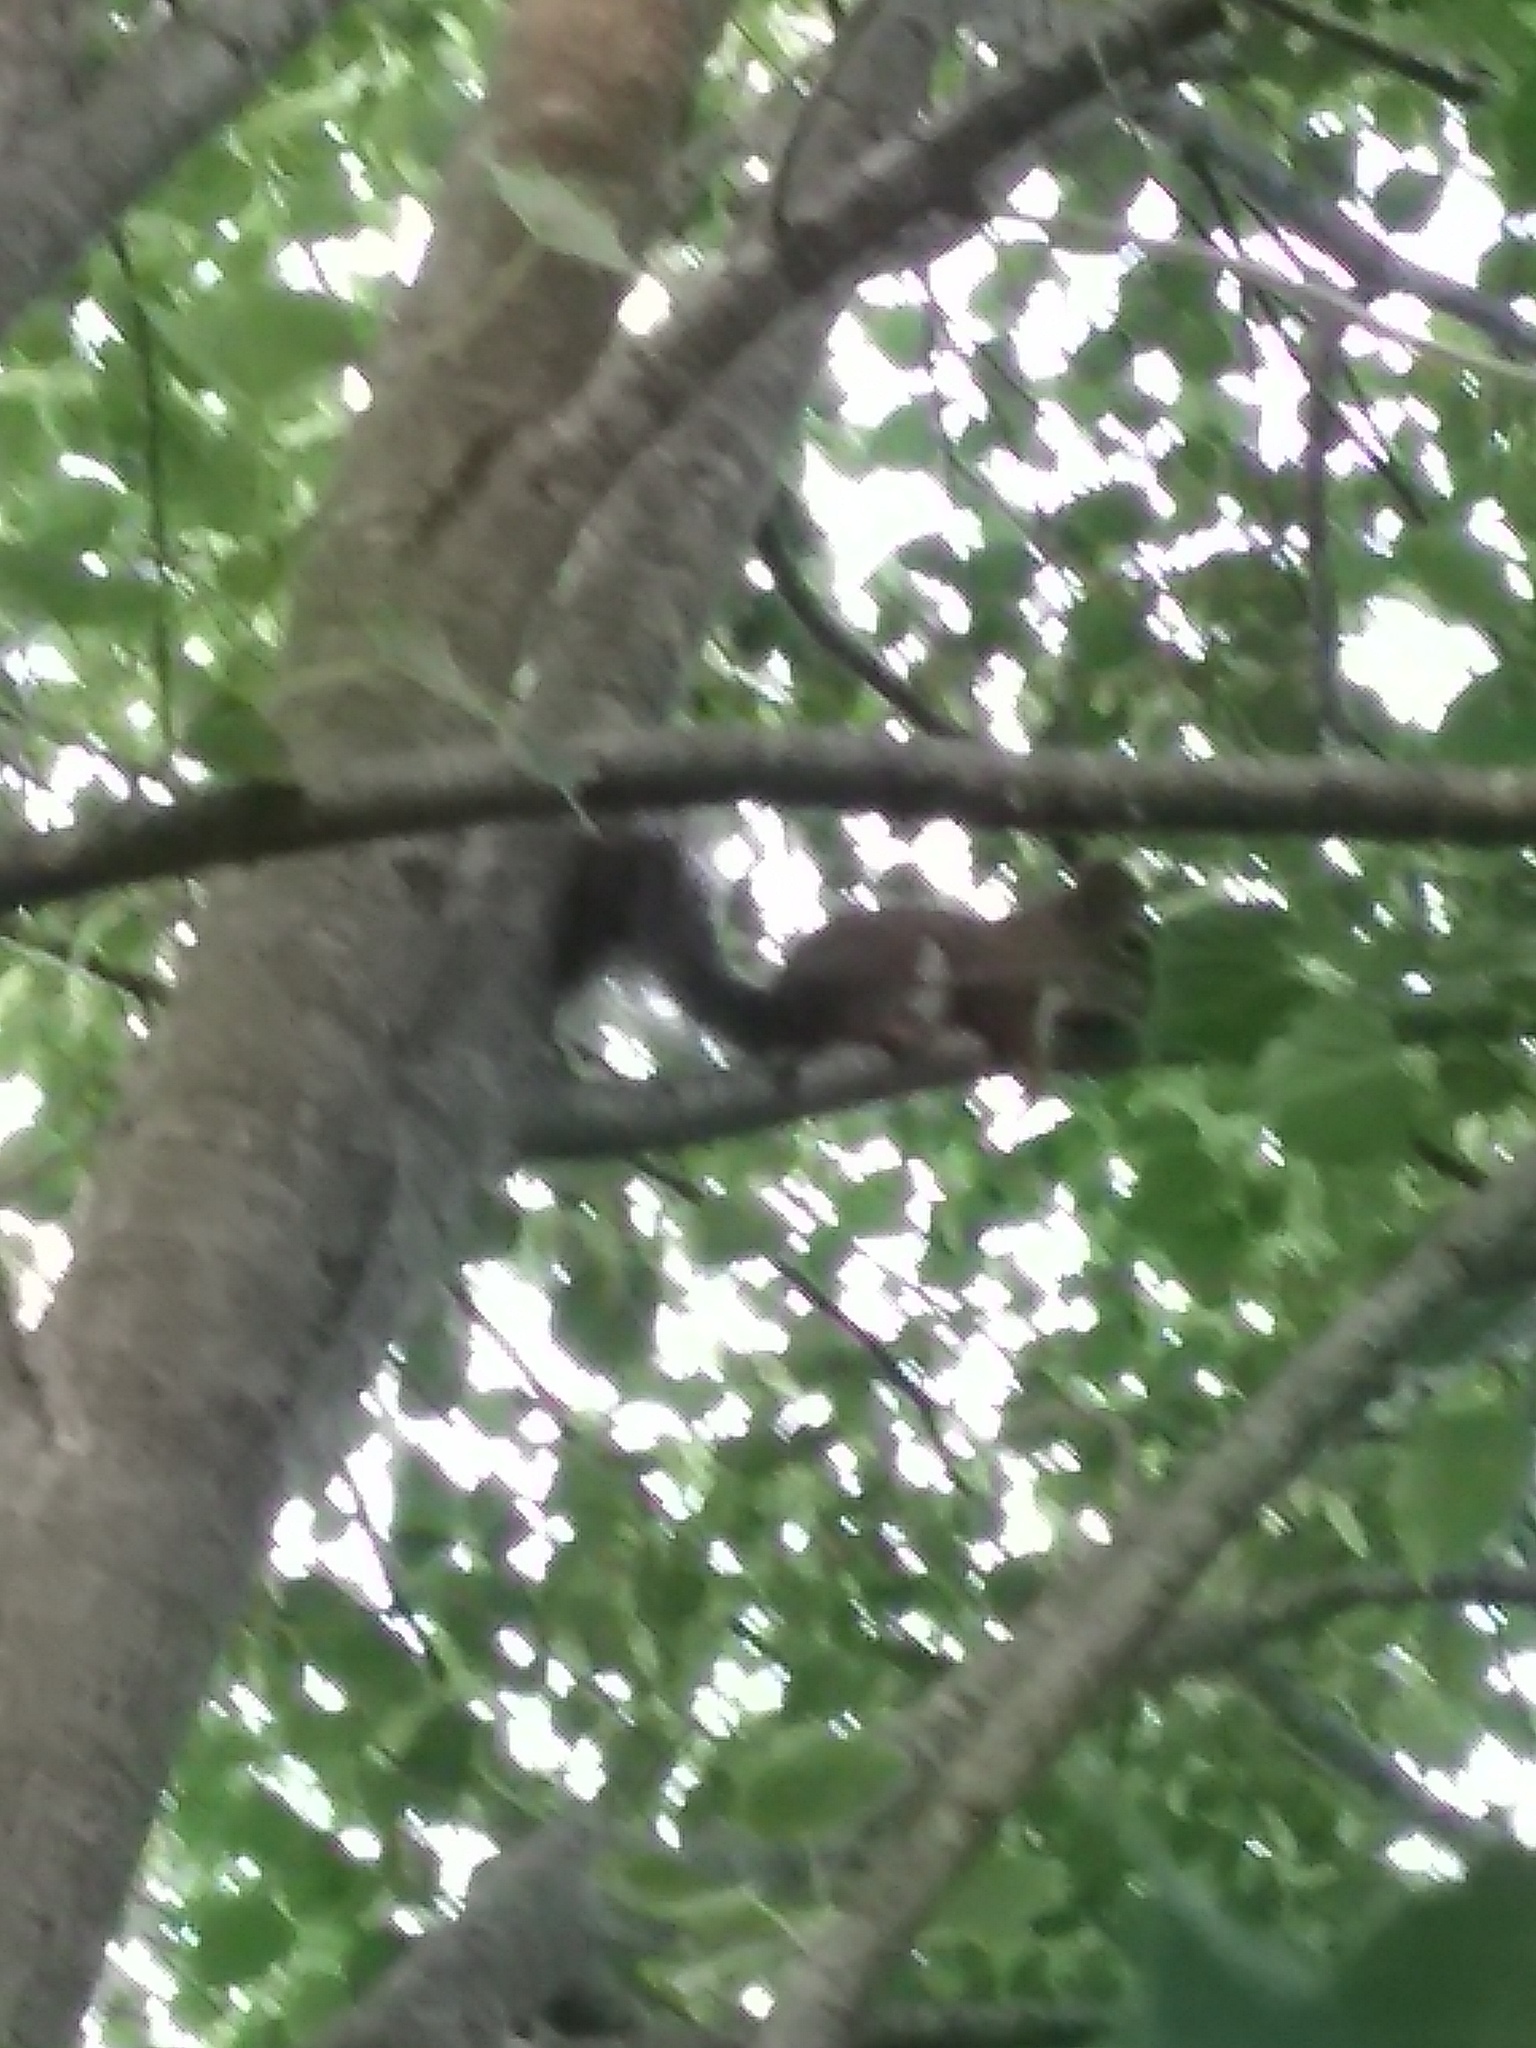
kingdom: Animalia
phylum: Chordata
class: Mammalia
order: Rodentia
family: Sciuridae
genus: Tamiasciurus
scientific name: Tamiasciurus hudsonicus
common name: Red squirrel
